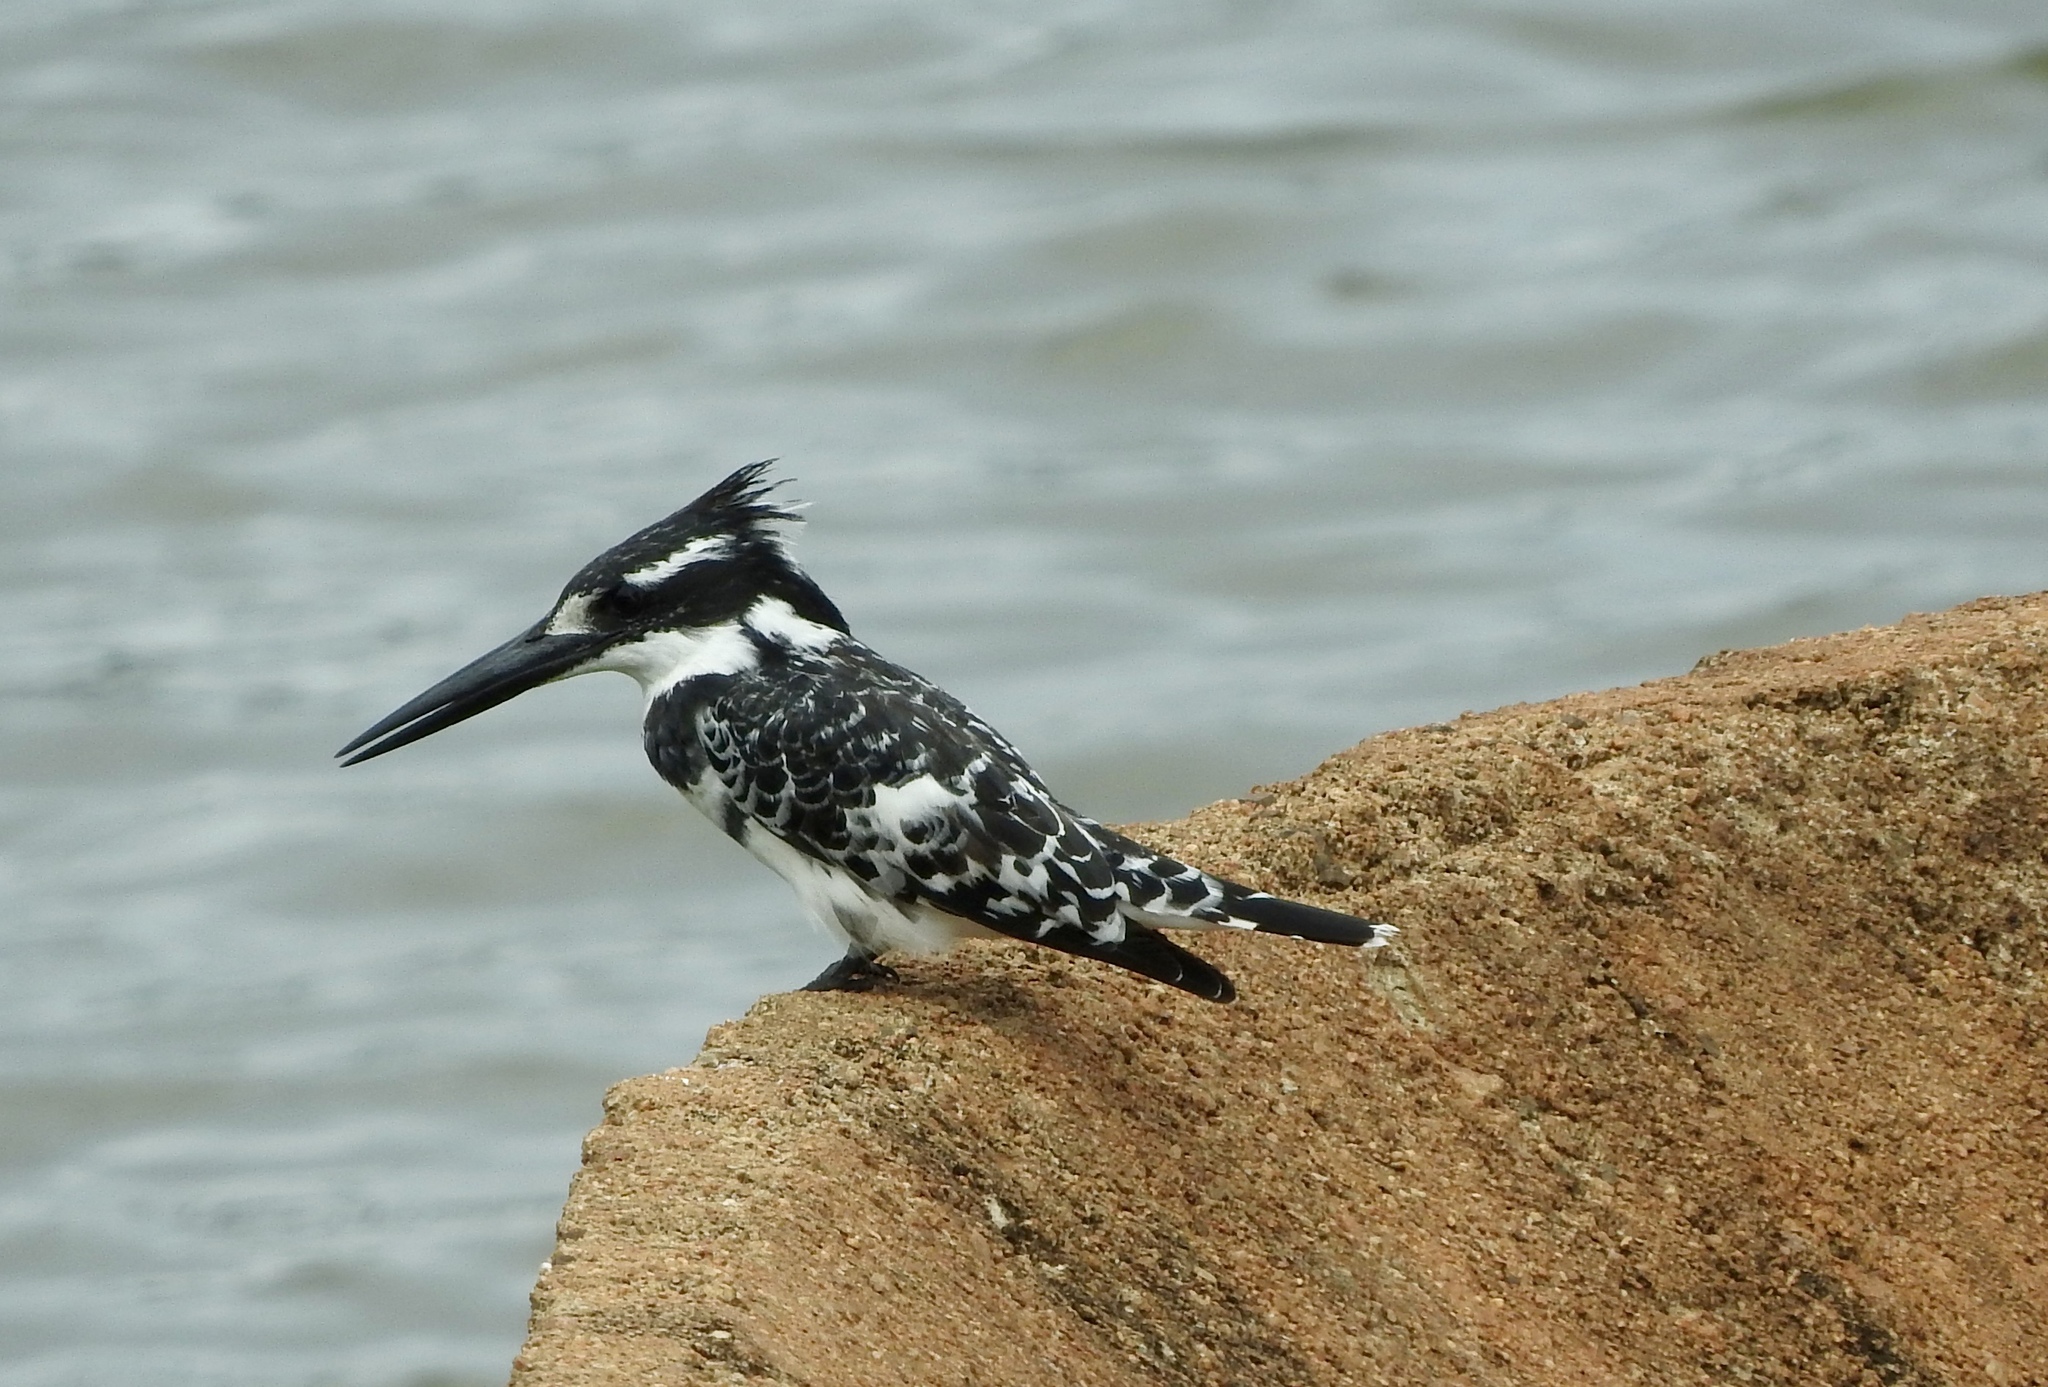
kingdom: Animalia
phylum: Chordata
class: Aves
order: Coraciiformes
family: Alcedinidae
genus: Ceryle
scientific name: Ceryle rudis
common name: Pied kingfisher
